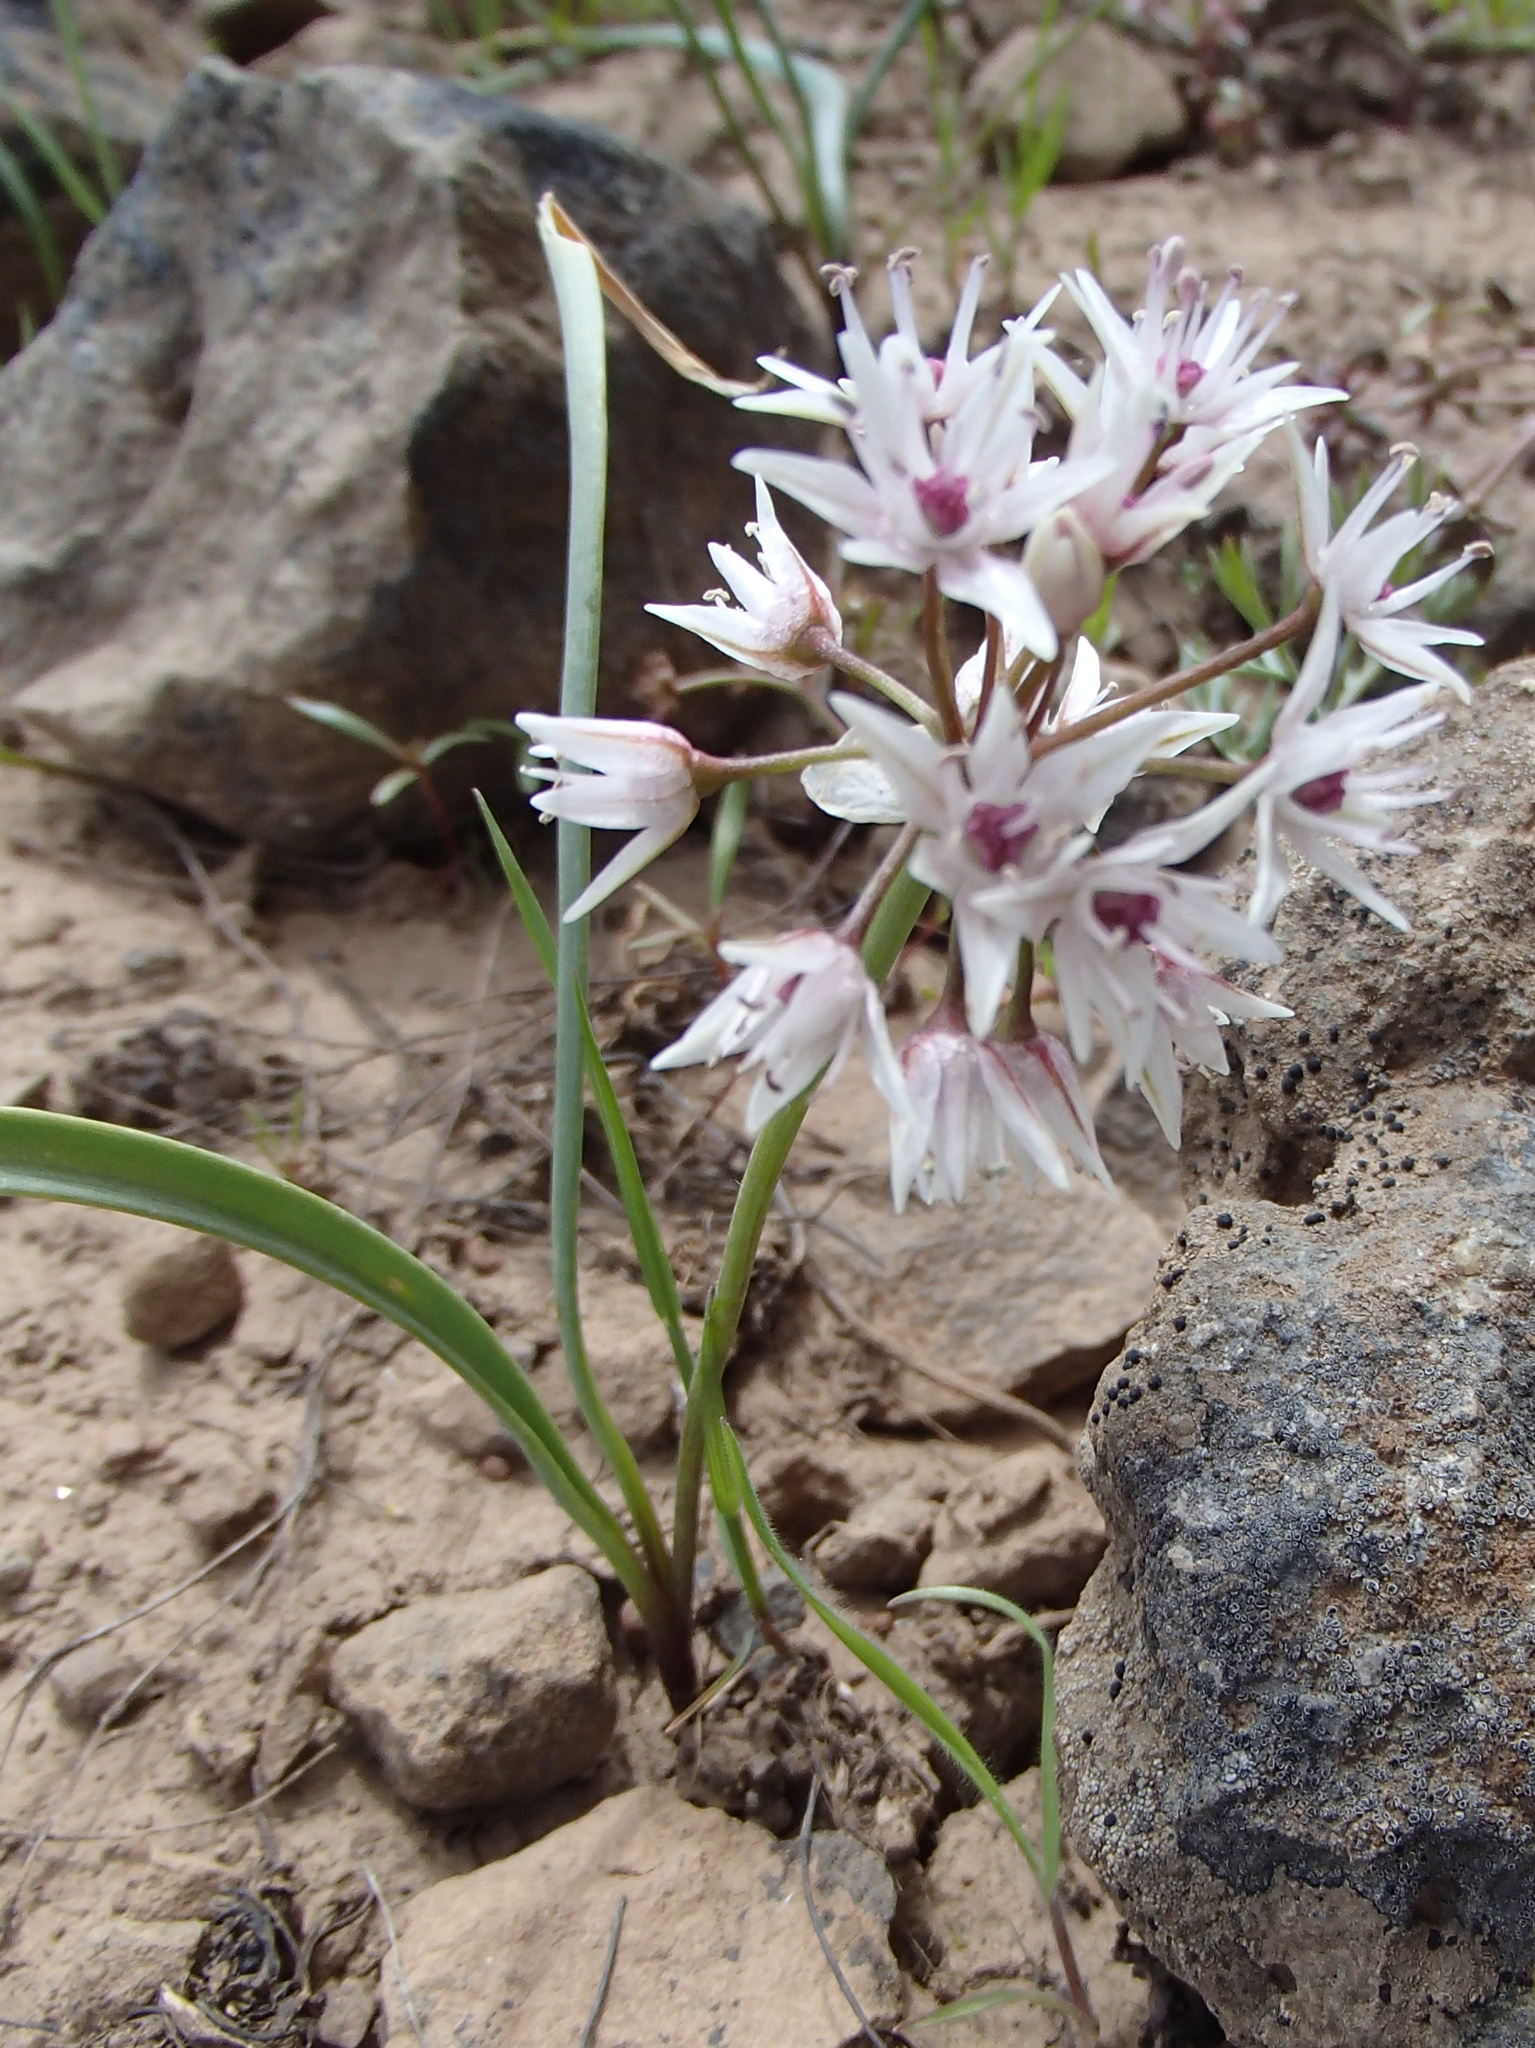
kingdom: Plantae
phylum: Tracheophyta
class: Liliopsida
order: Asparagales
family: Amaryllidaceae
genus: Allium
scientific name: Allium macrum
